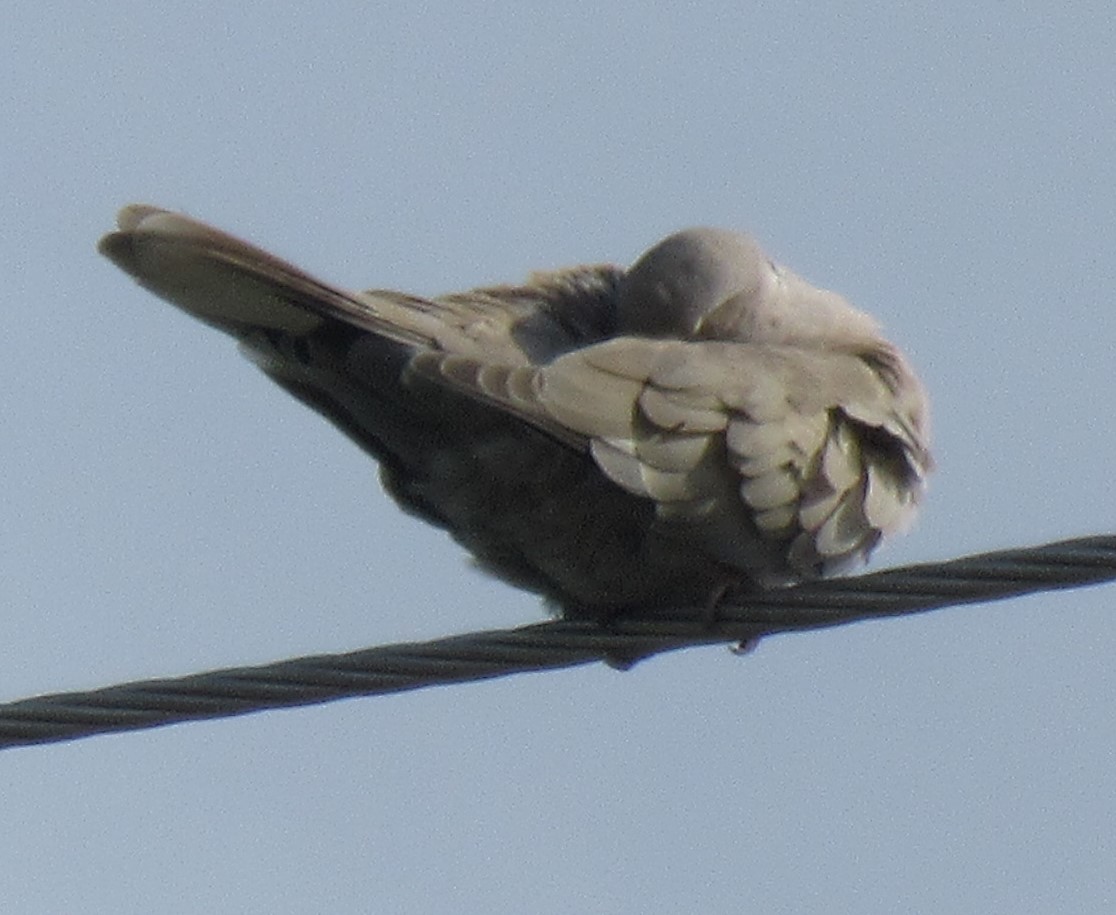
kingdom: Animalia
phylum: Chordata
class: Aves
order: Columbiformes
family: Columbidae
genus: Streptopelia
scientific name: Streptopelia decaocto
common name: Eurasian collared dove
